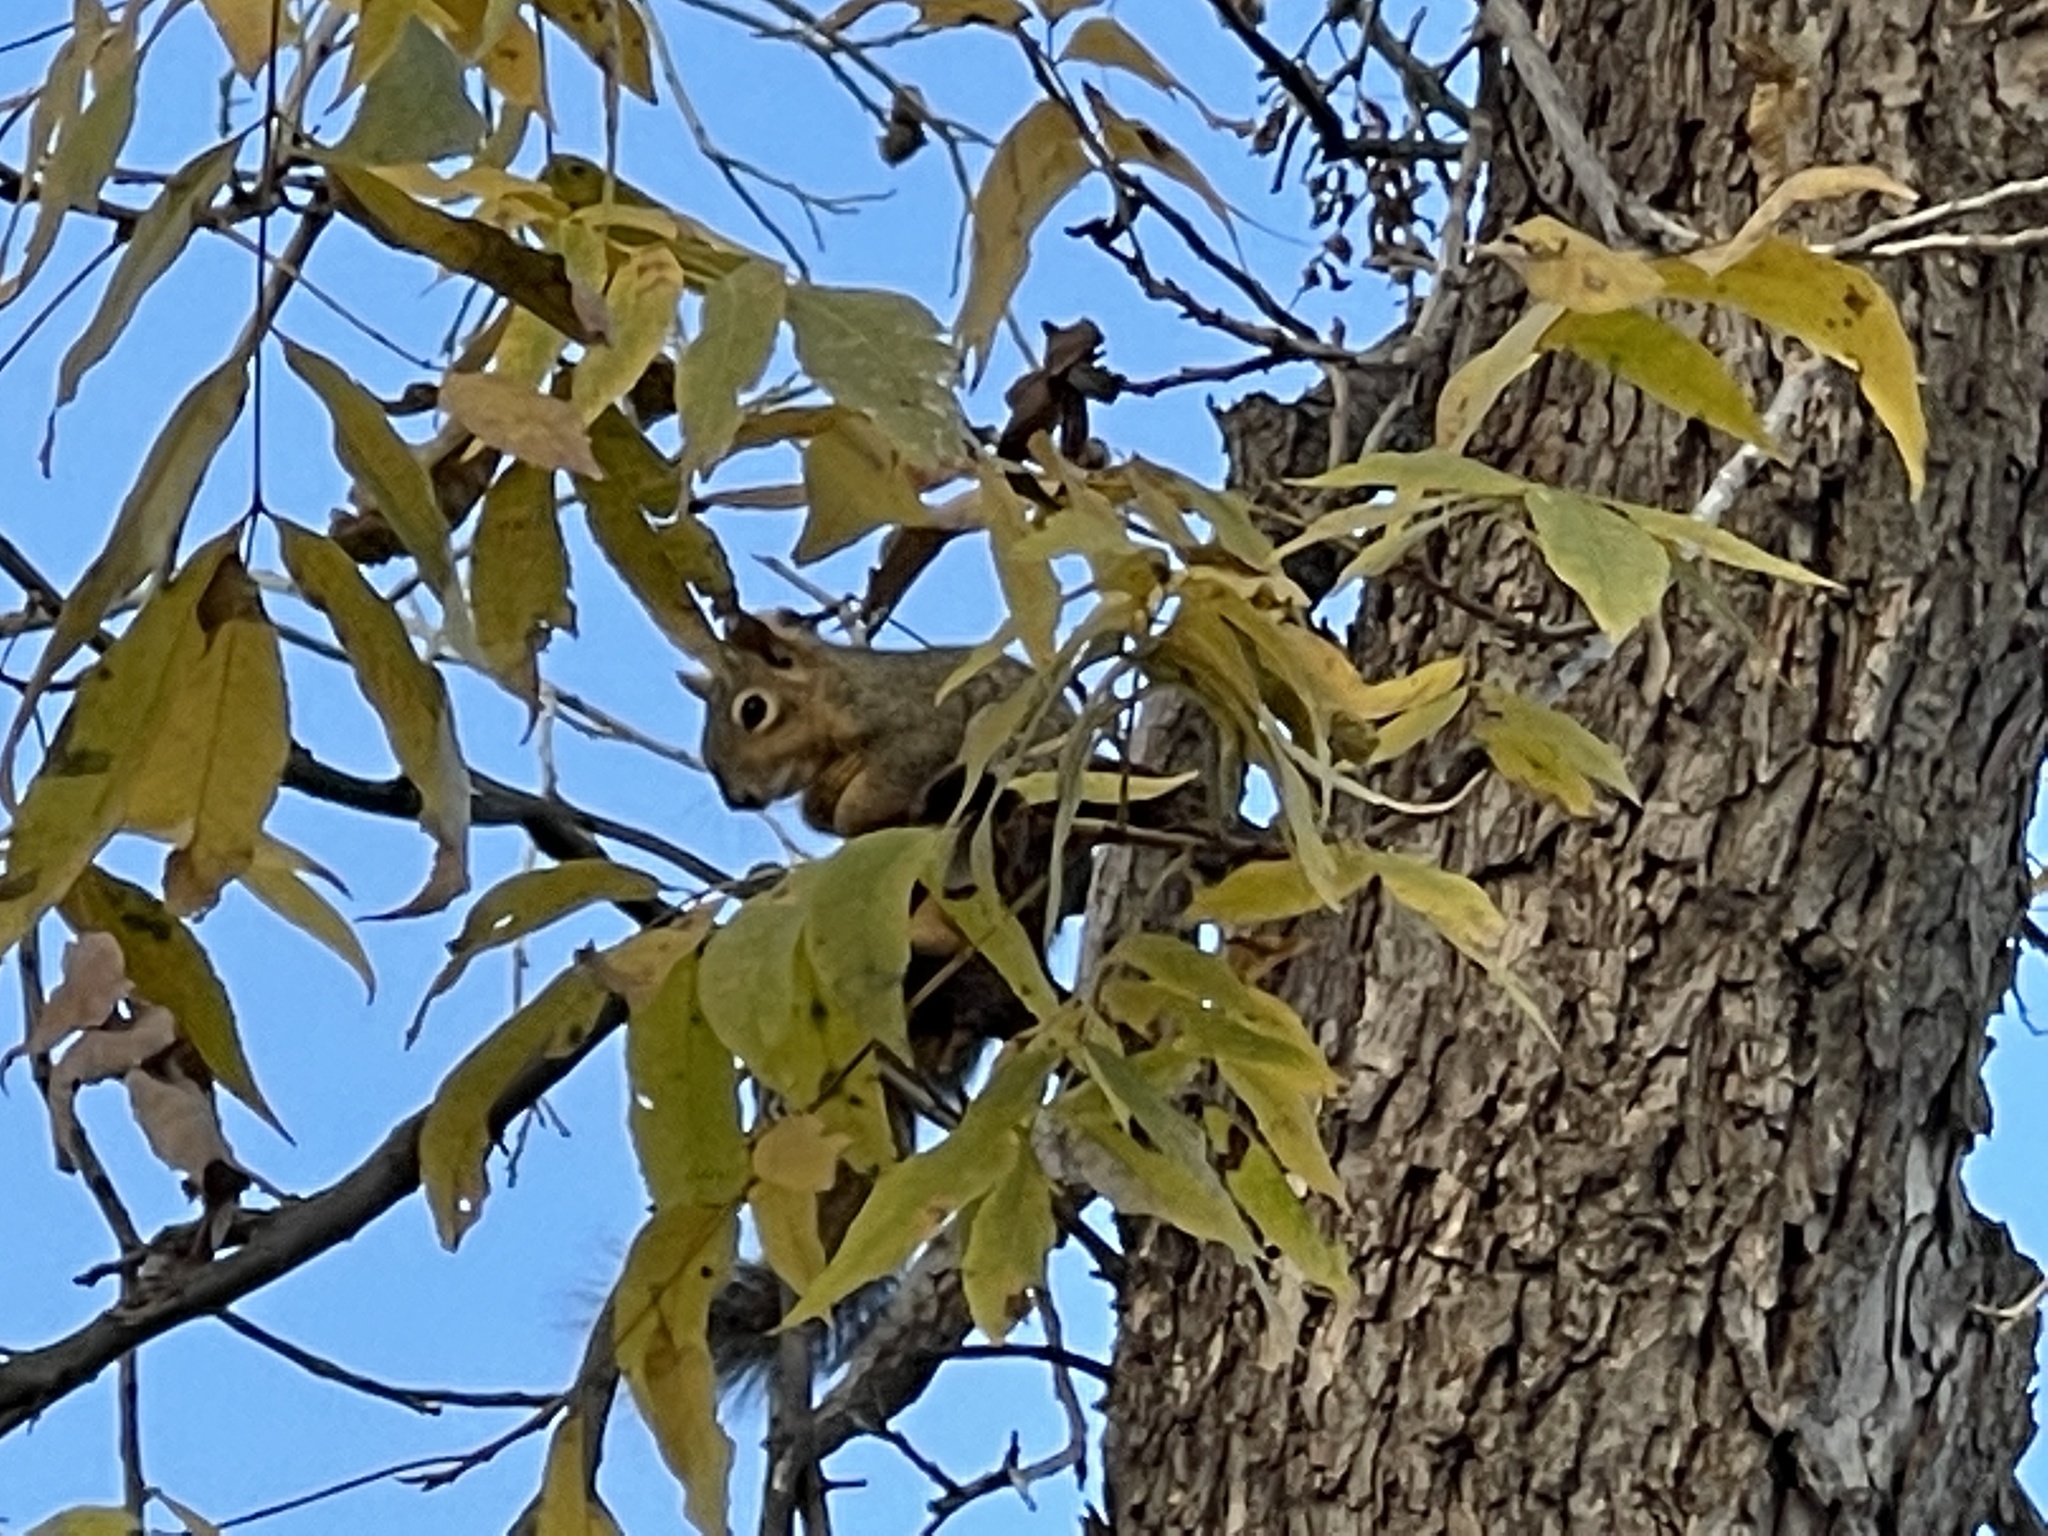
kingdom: Animalia
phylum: Chordata
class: Mammalia
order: Rodentia
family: Sciuridae
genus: Sciurus
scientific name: Sciurus niger
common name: Fox squirrel
